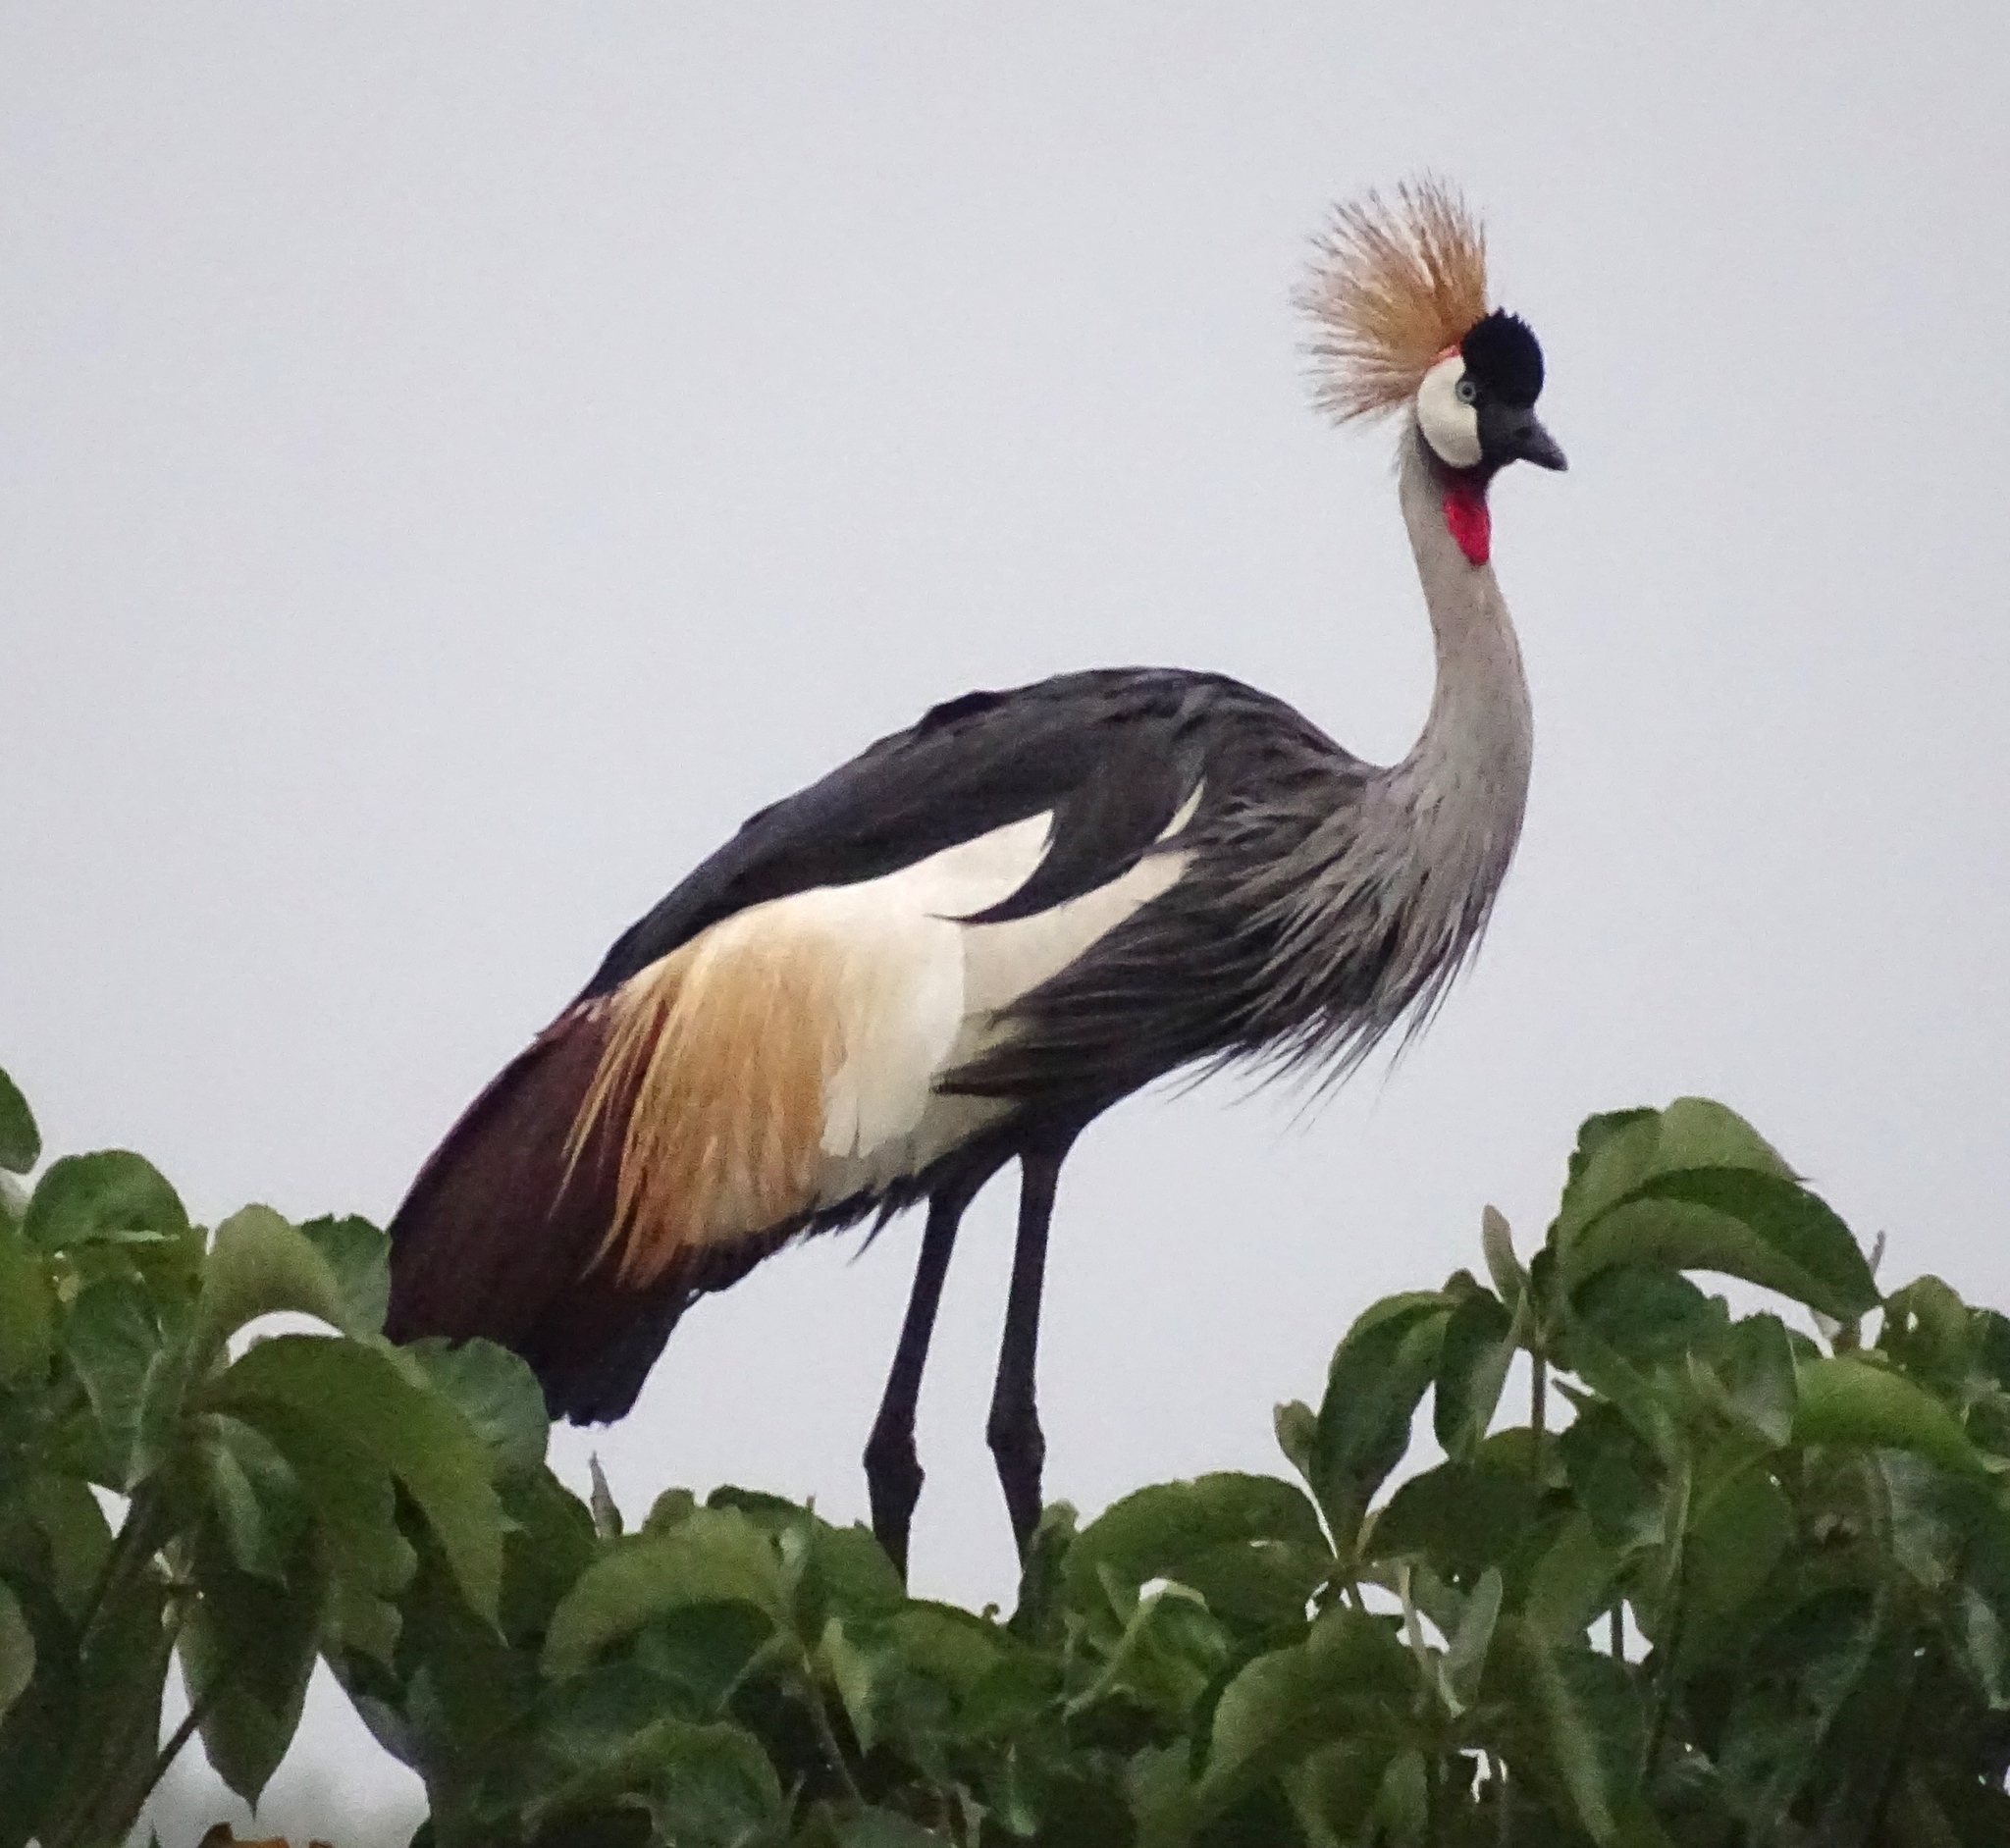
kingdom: Animalia
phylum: Chordata
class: Aves
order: Gruiformes
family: Gruidae
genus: Balearica
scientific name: Balearica regulorum
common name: Grey crowned crane
